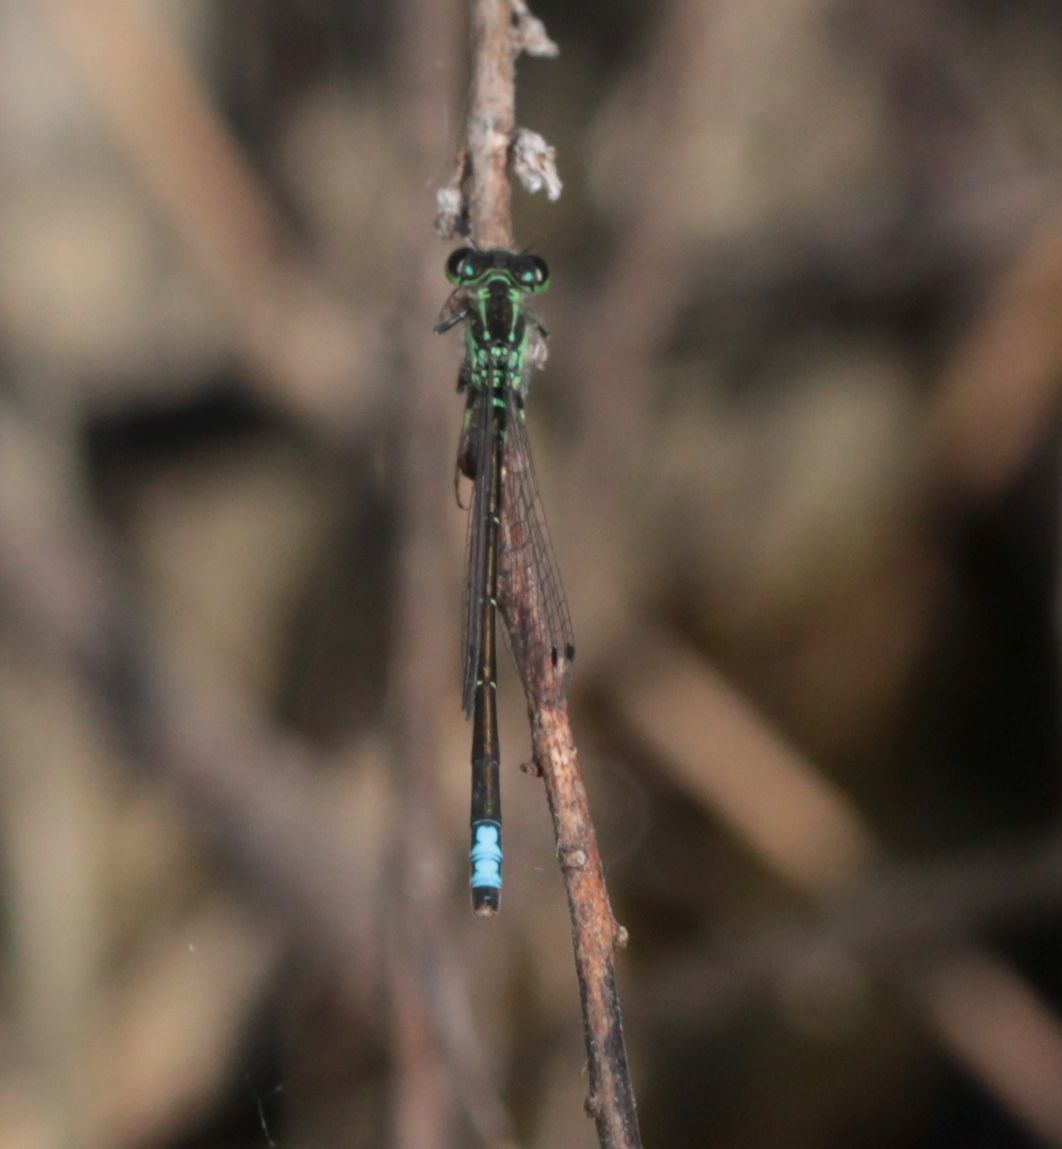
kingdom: Animalia
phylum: Arthropoda
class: Insecta
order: Odonata
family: Coenagrionidae
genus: Ischnura
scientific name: Ischnura verticalis
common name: Eastern forktail
